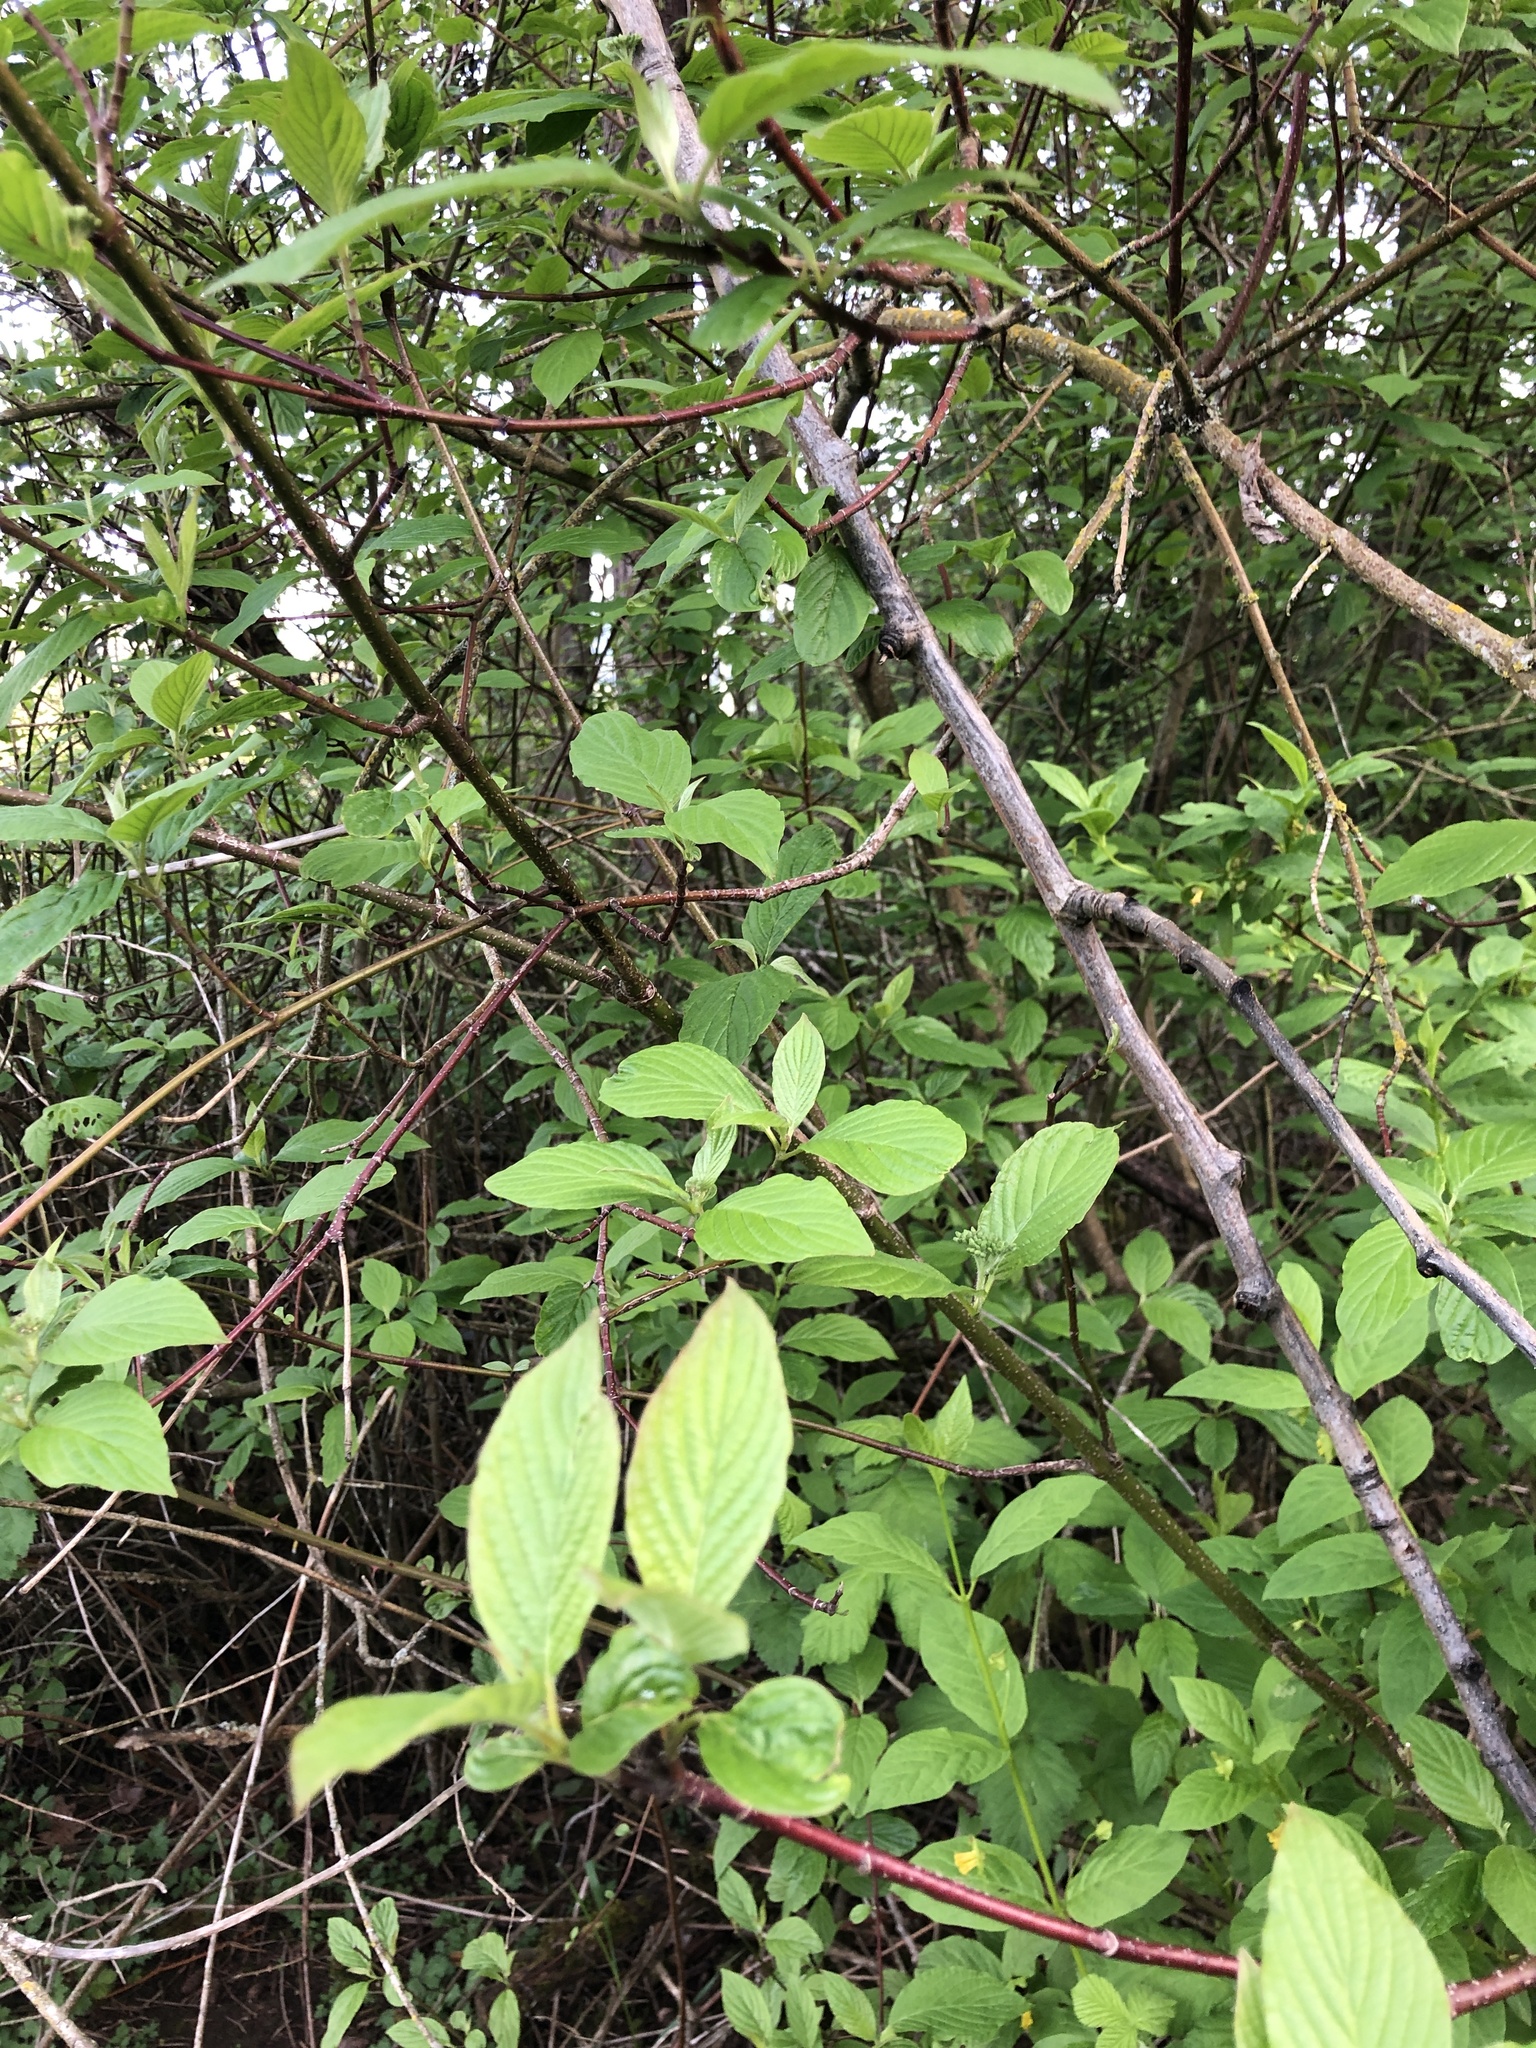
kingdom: Plantae
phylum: Tracheophyta
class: Magnoliopsida
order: Cornales
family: Cornaceae
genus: Cornus
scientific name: Cornus sericea
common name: Red-osier dogwood
